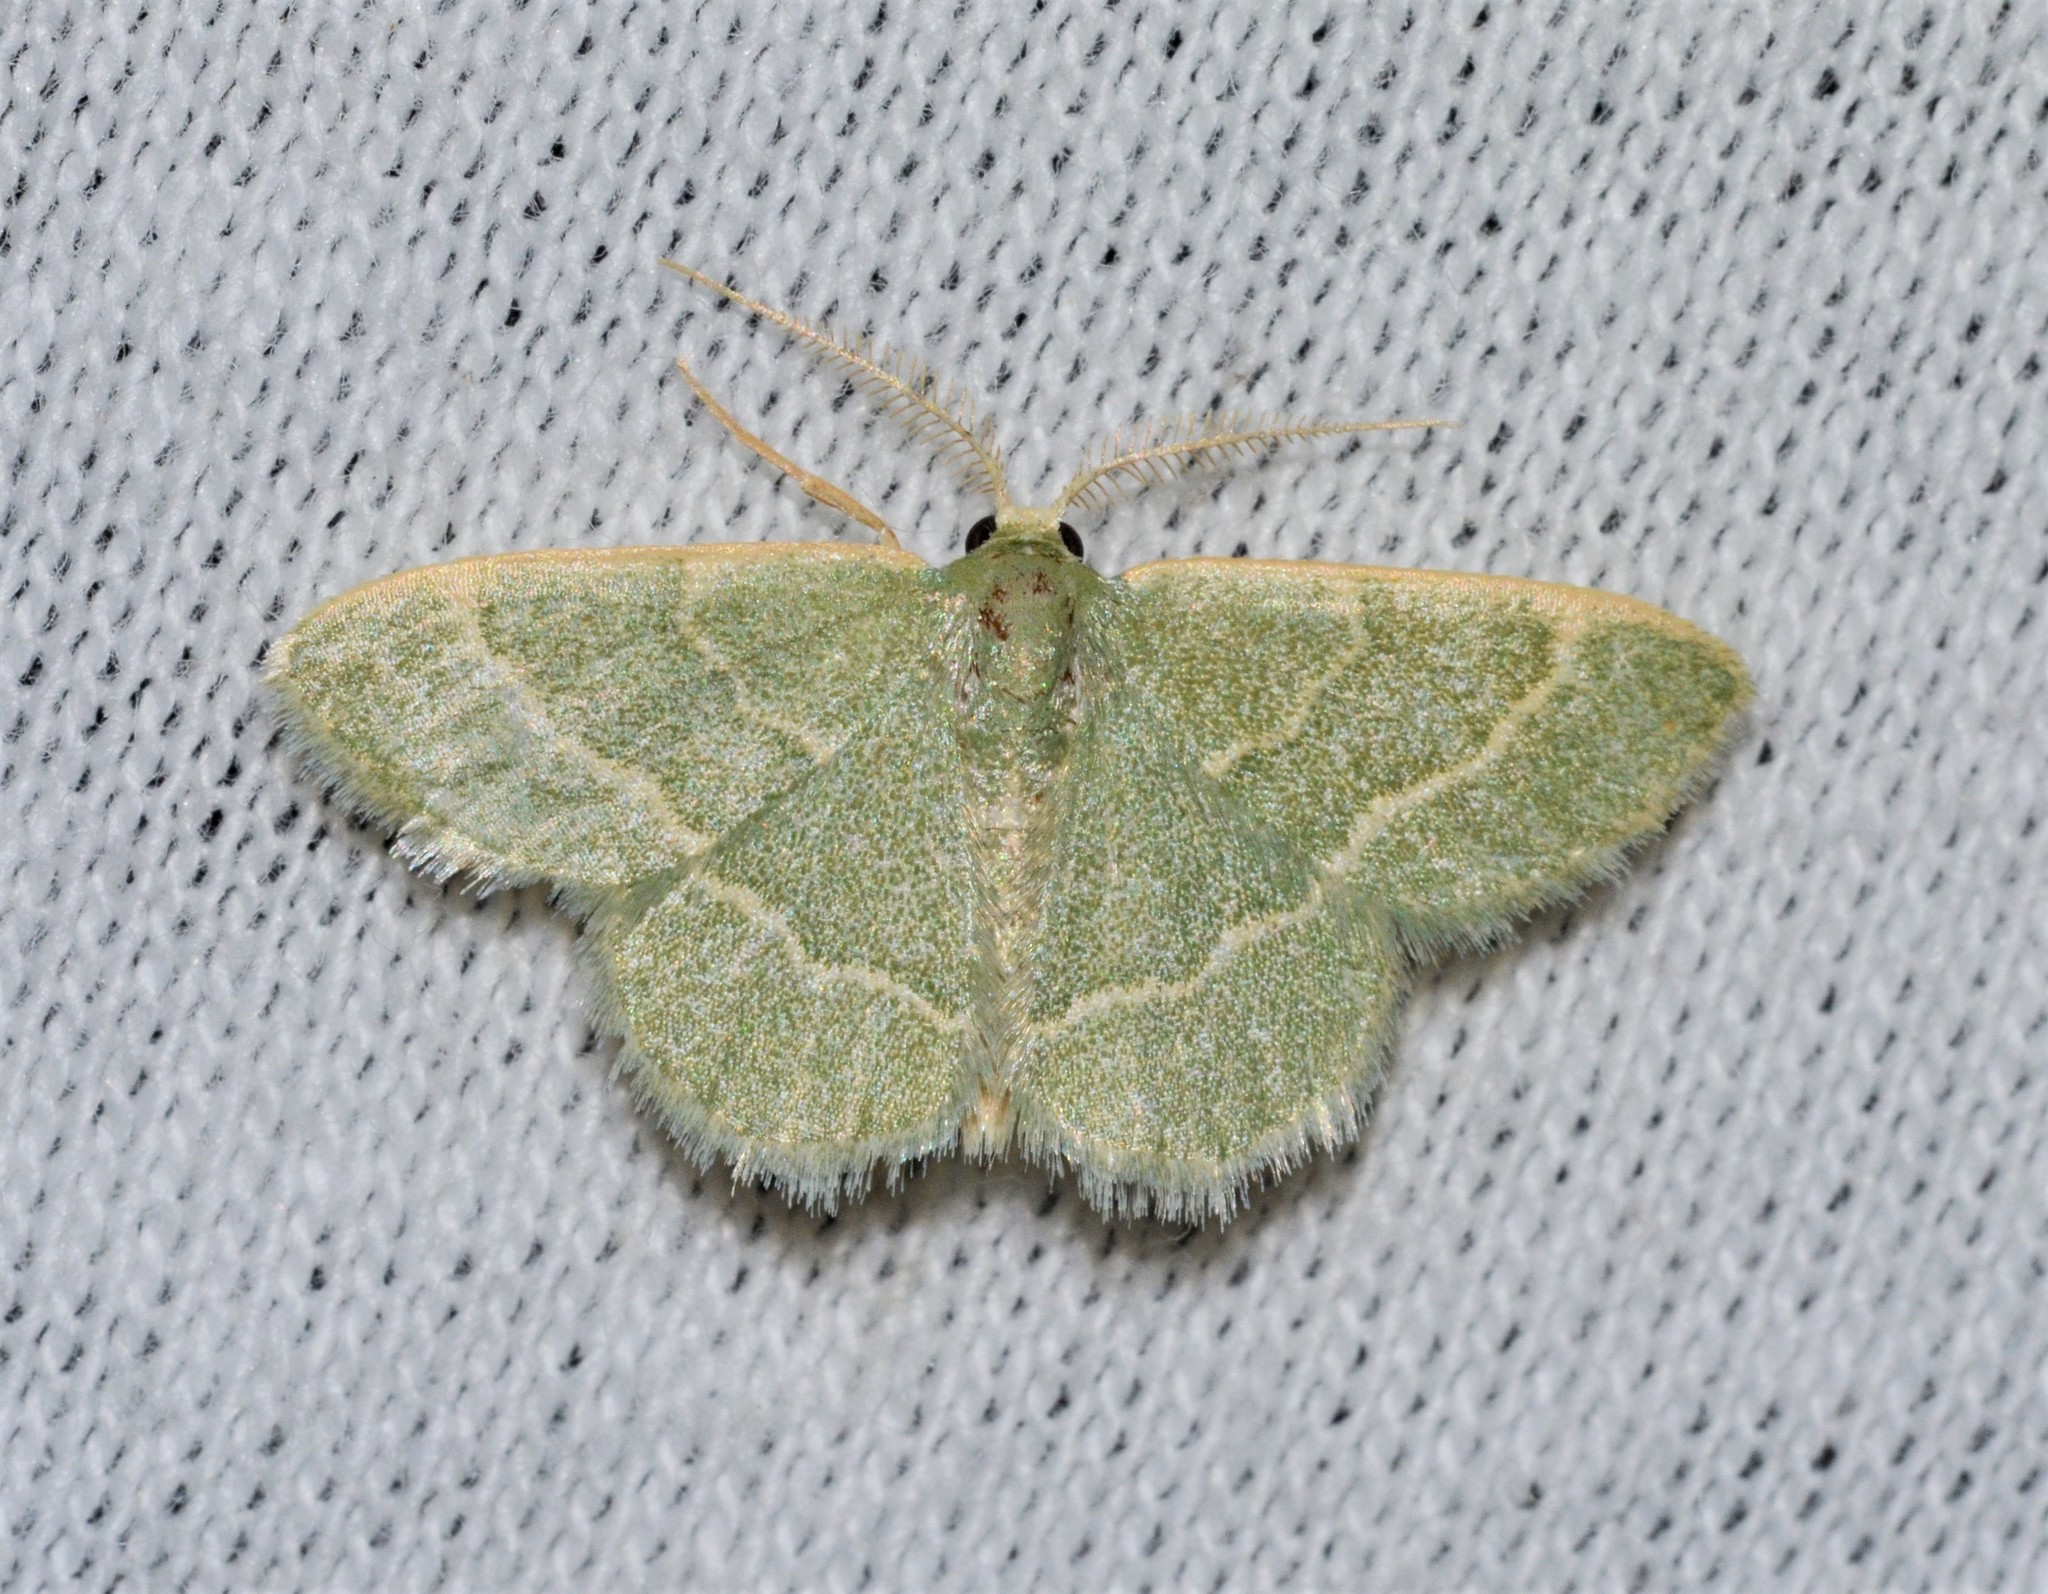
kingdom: Animalia
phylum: Arthropoda
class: Insecta
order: Lepidoptera
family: Geometridae
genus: Chlorochlamys
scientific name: Chlorochlamys phyllinaria
